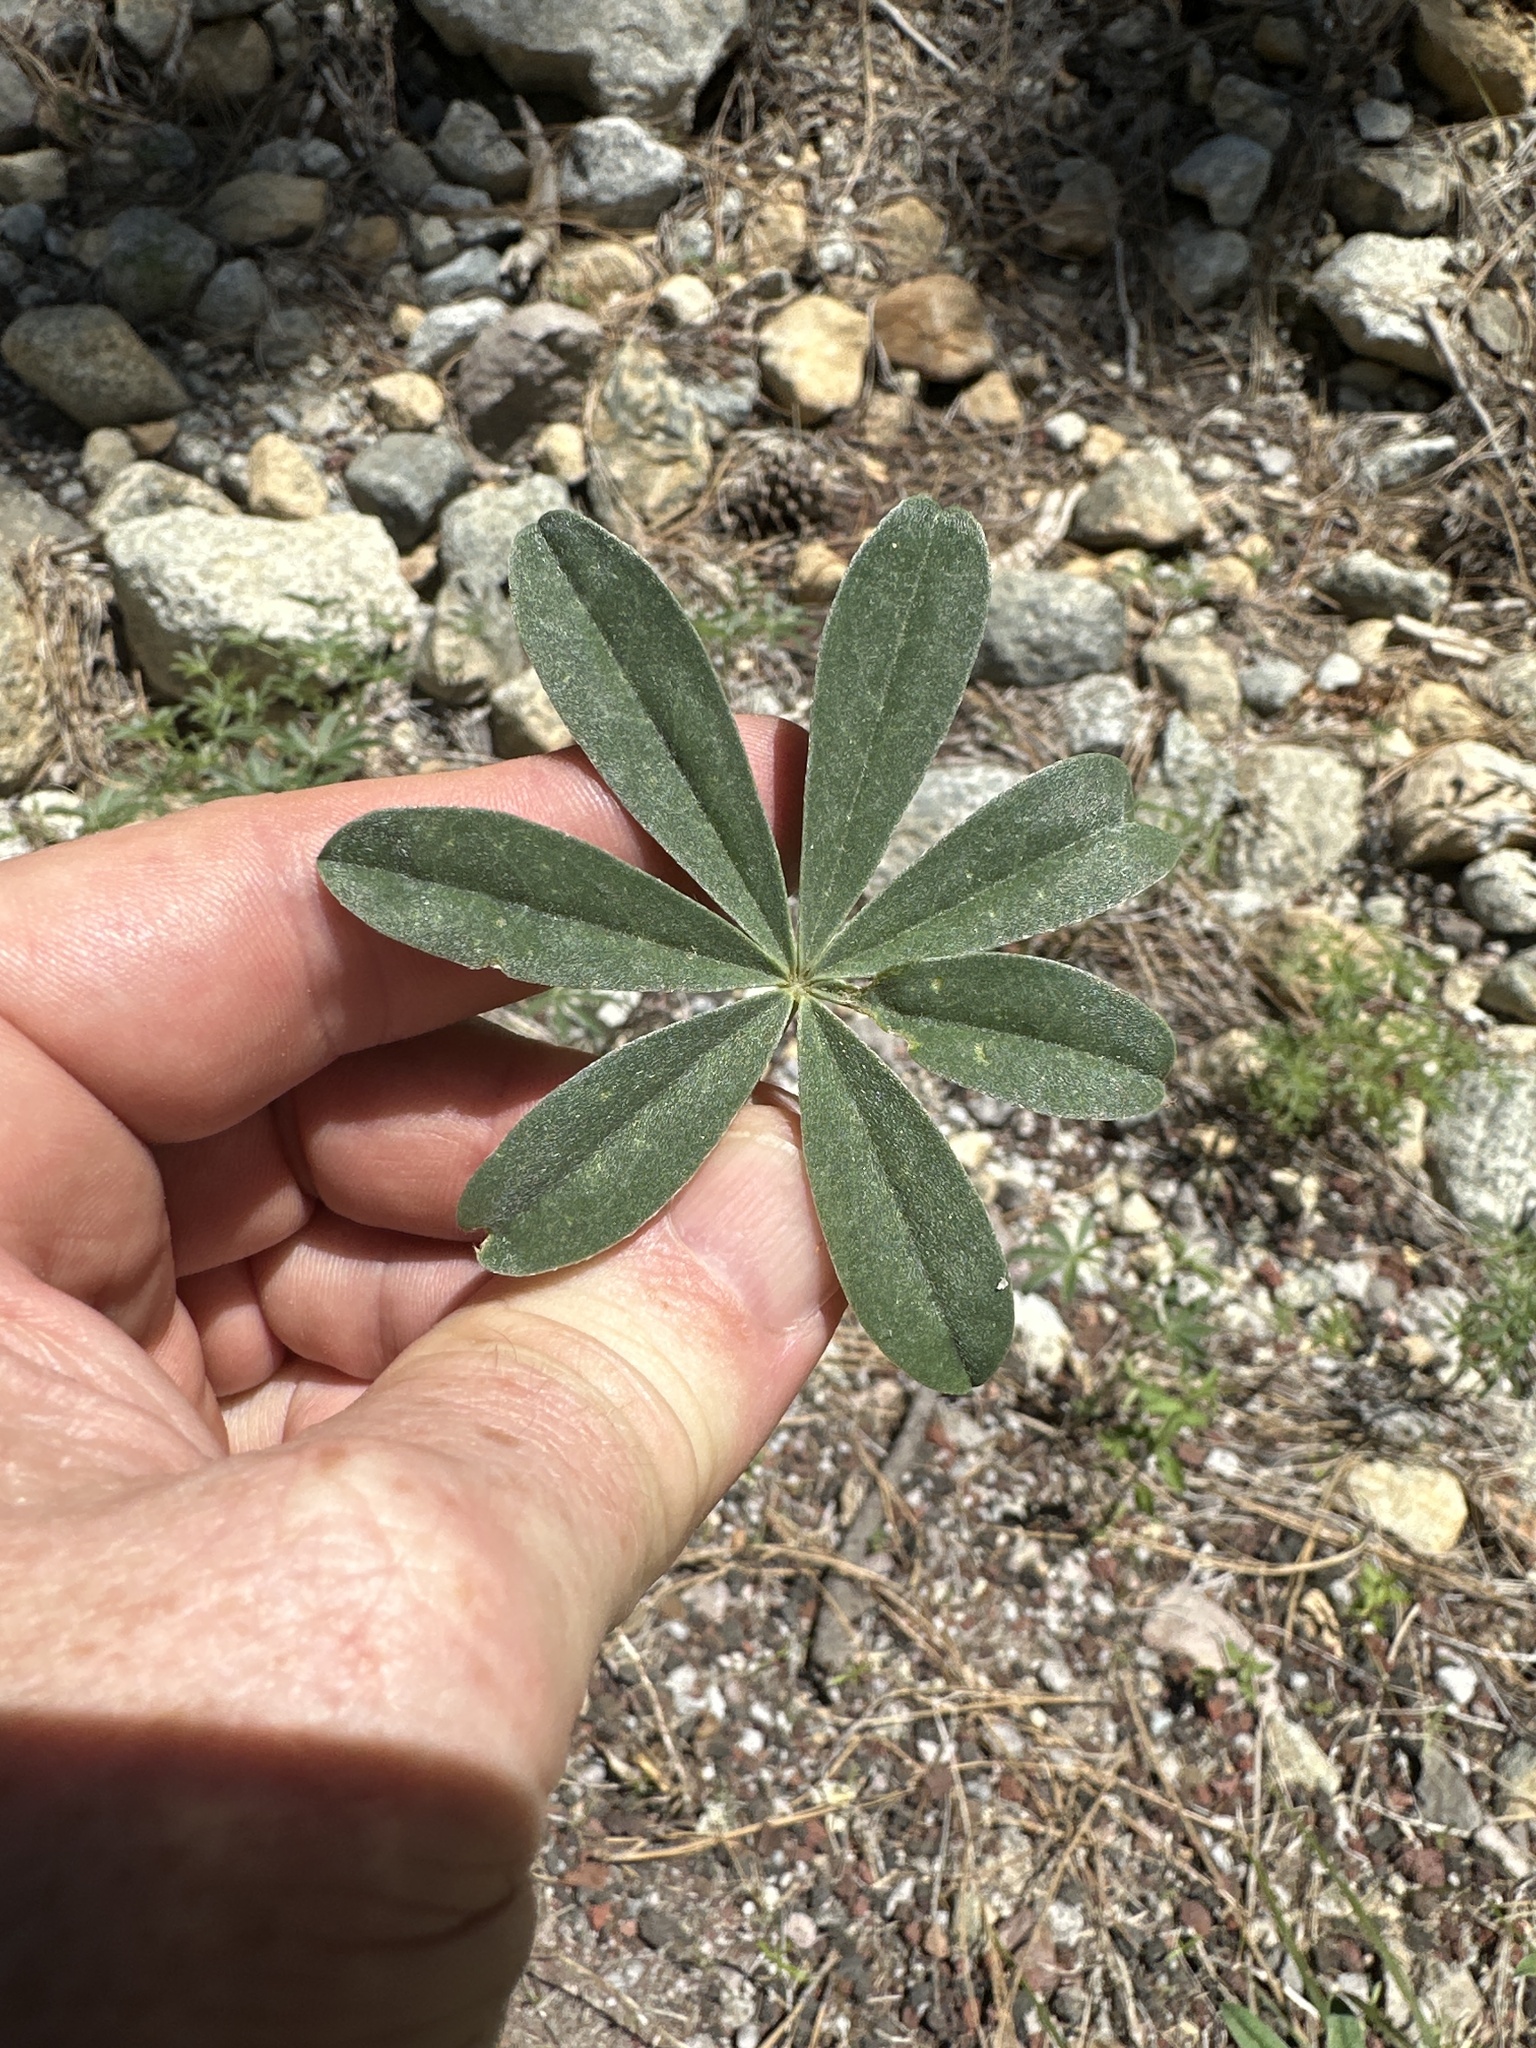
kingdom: Plantae
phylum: Tracheophyta
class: Magnoliopsida
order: Fabales
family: Fabaceae
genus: Lupinus
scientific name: Lupinus croceus
